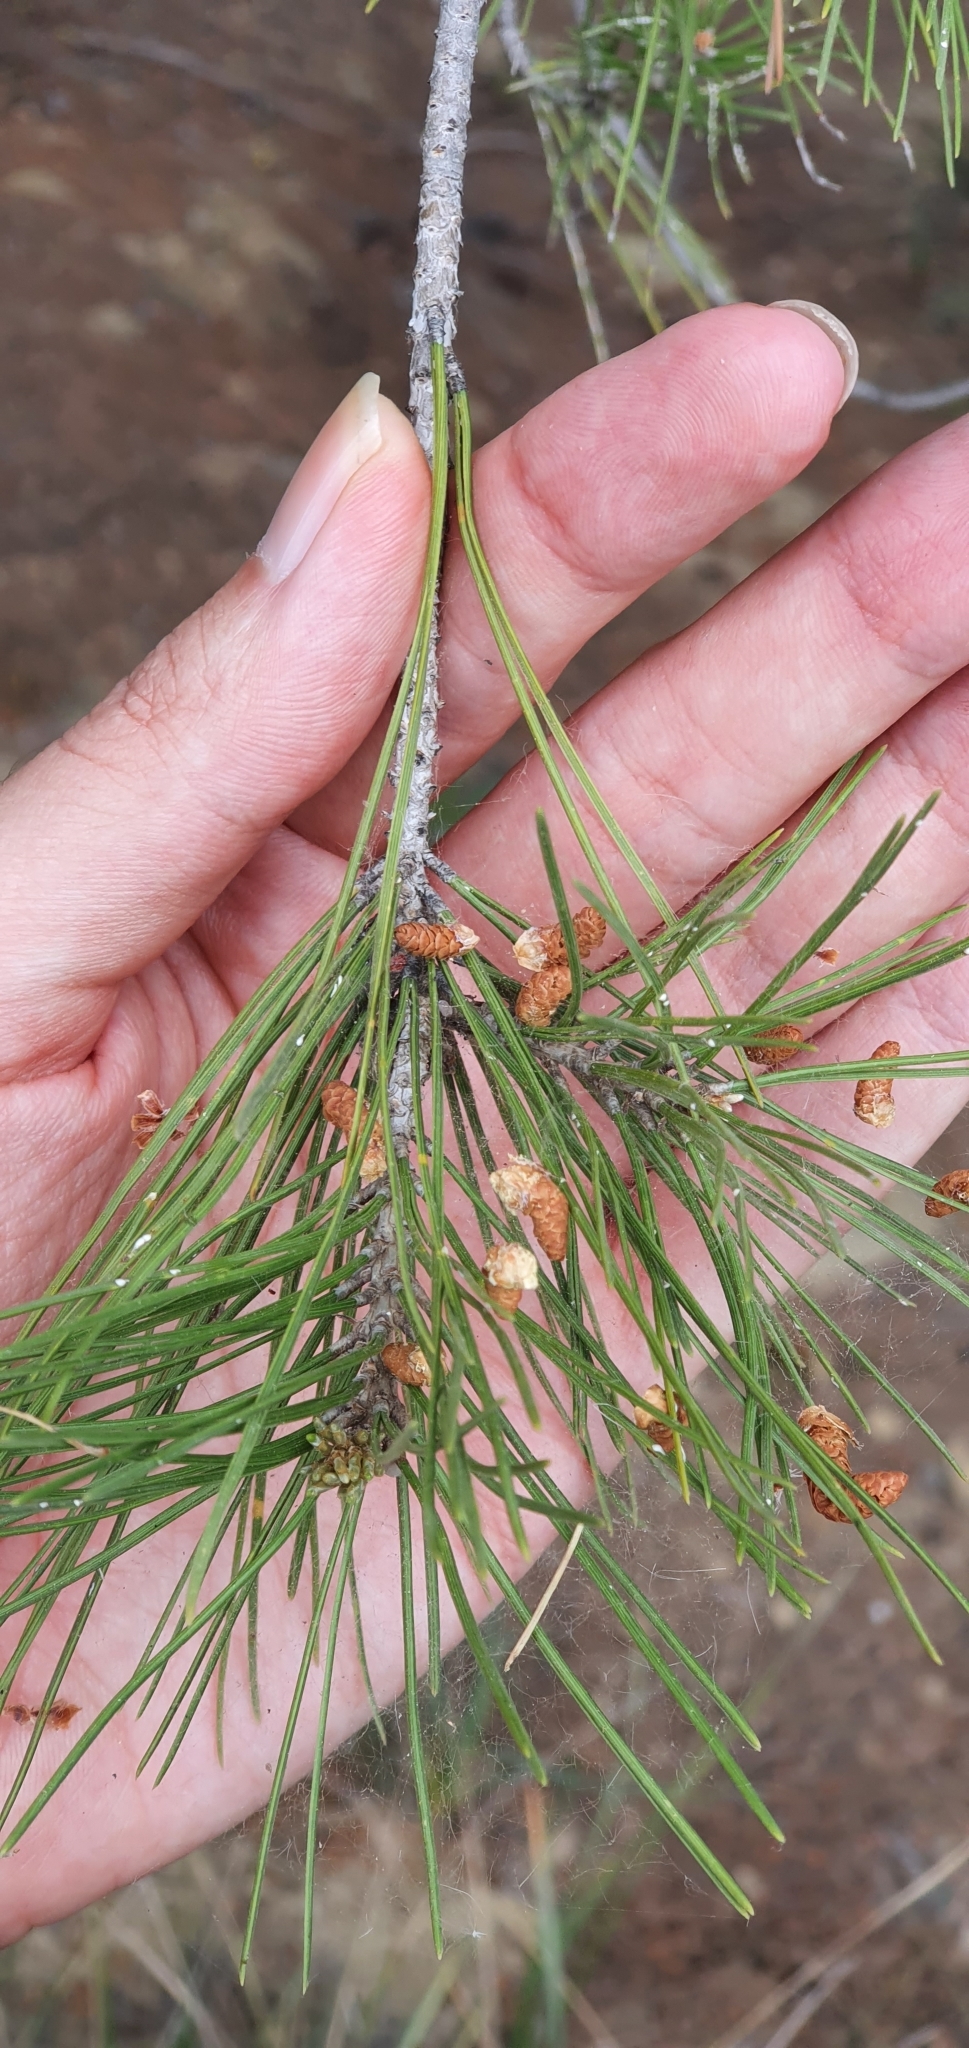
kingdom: Plantae
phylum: Tracheophyta
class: Pinopsida
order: Pinales
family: Pinaceae
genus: Pinus
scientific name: Pinus halepensis
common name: Aleppo pine
